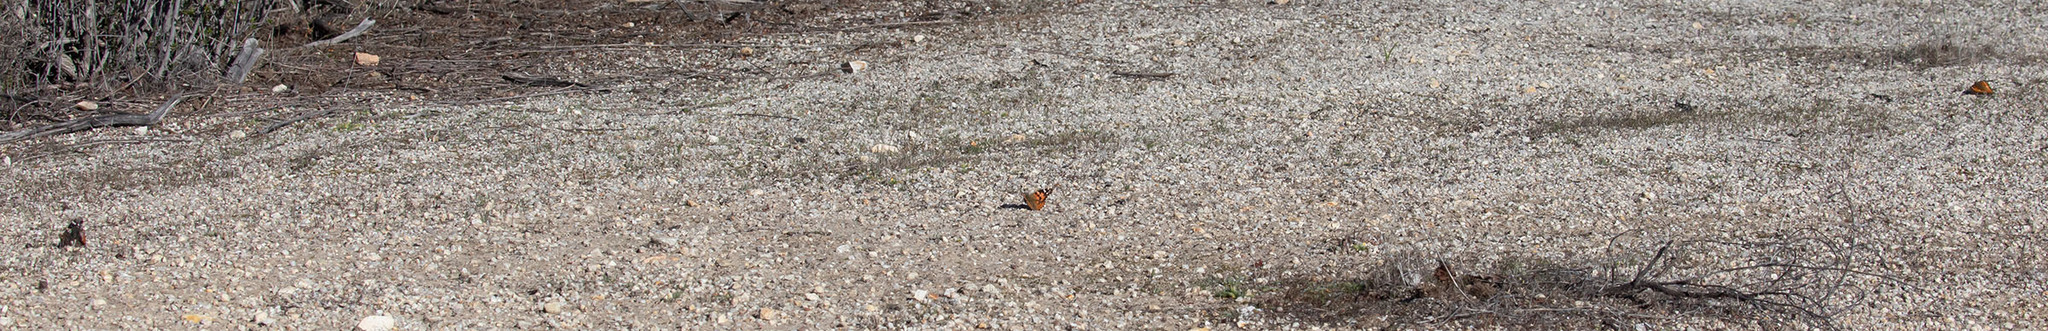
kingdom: Animalia
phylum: Arthropoda
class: Insecta
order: Lepidoptera
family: Nymphalidae
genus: Vanessa
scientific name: Vanessa atalanta
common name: Red admiral
